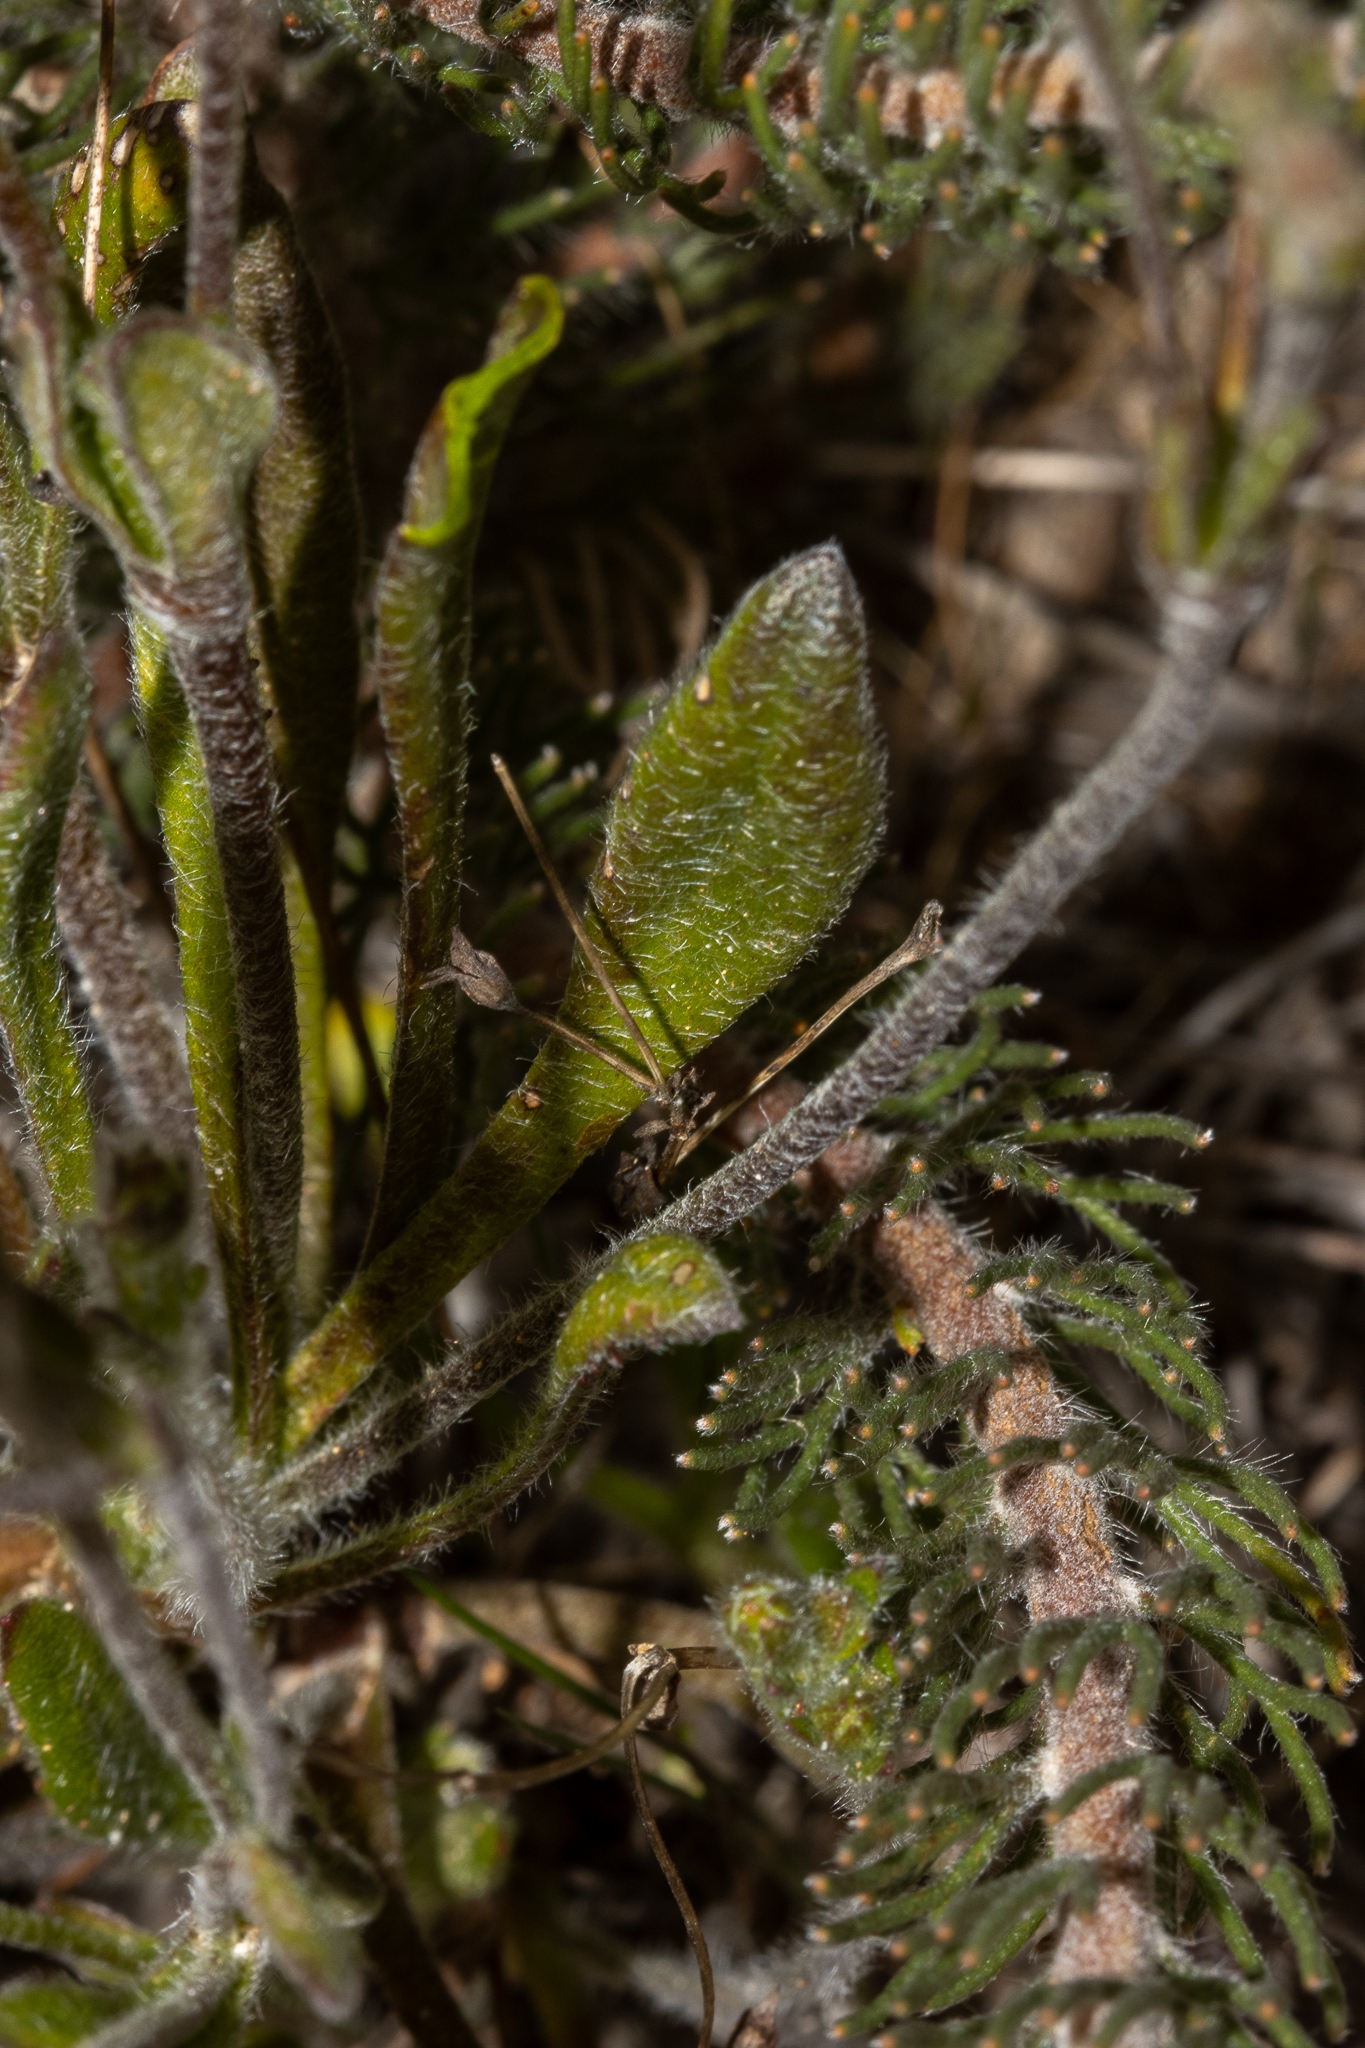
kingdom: Plantae
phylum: Tracheophyta
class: Magnoliopsida
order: Asterales
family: Goodeniaceae
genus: Goodenia
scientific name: Goodenia trinervis
